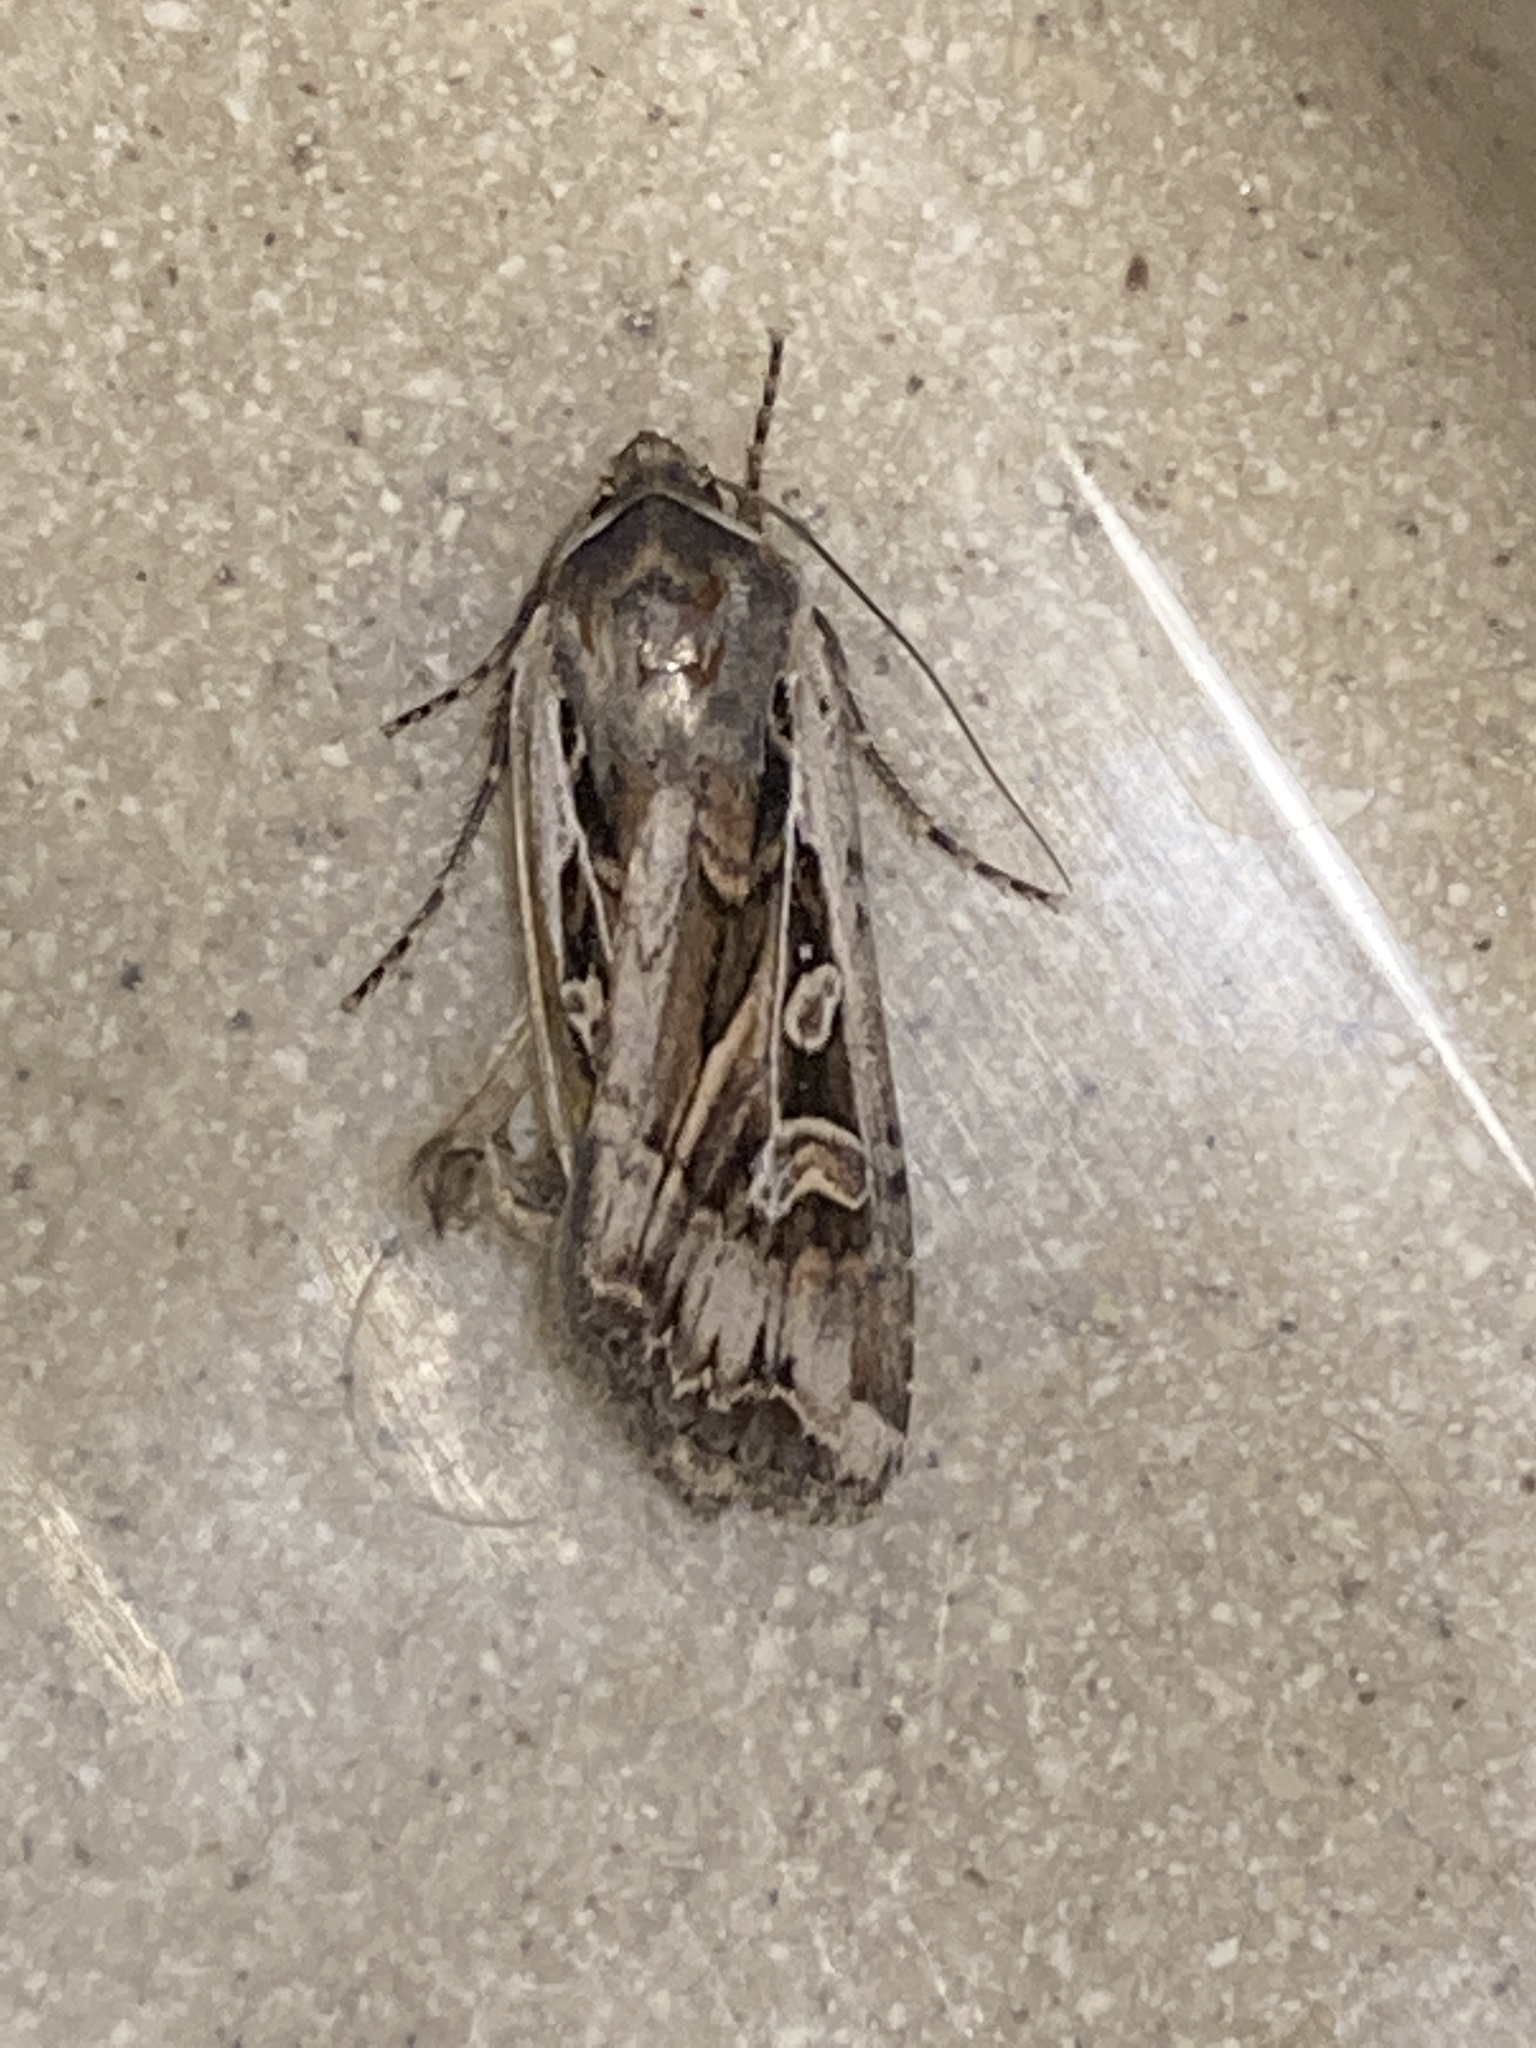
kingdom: Animalia
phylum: Arthropoda
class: Insecta
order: Lepidoptera
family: Noctuidae
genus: Euxoa
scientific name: Euxoa auxiliaris
